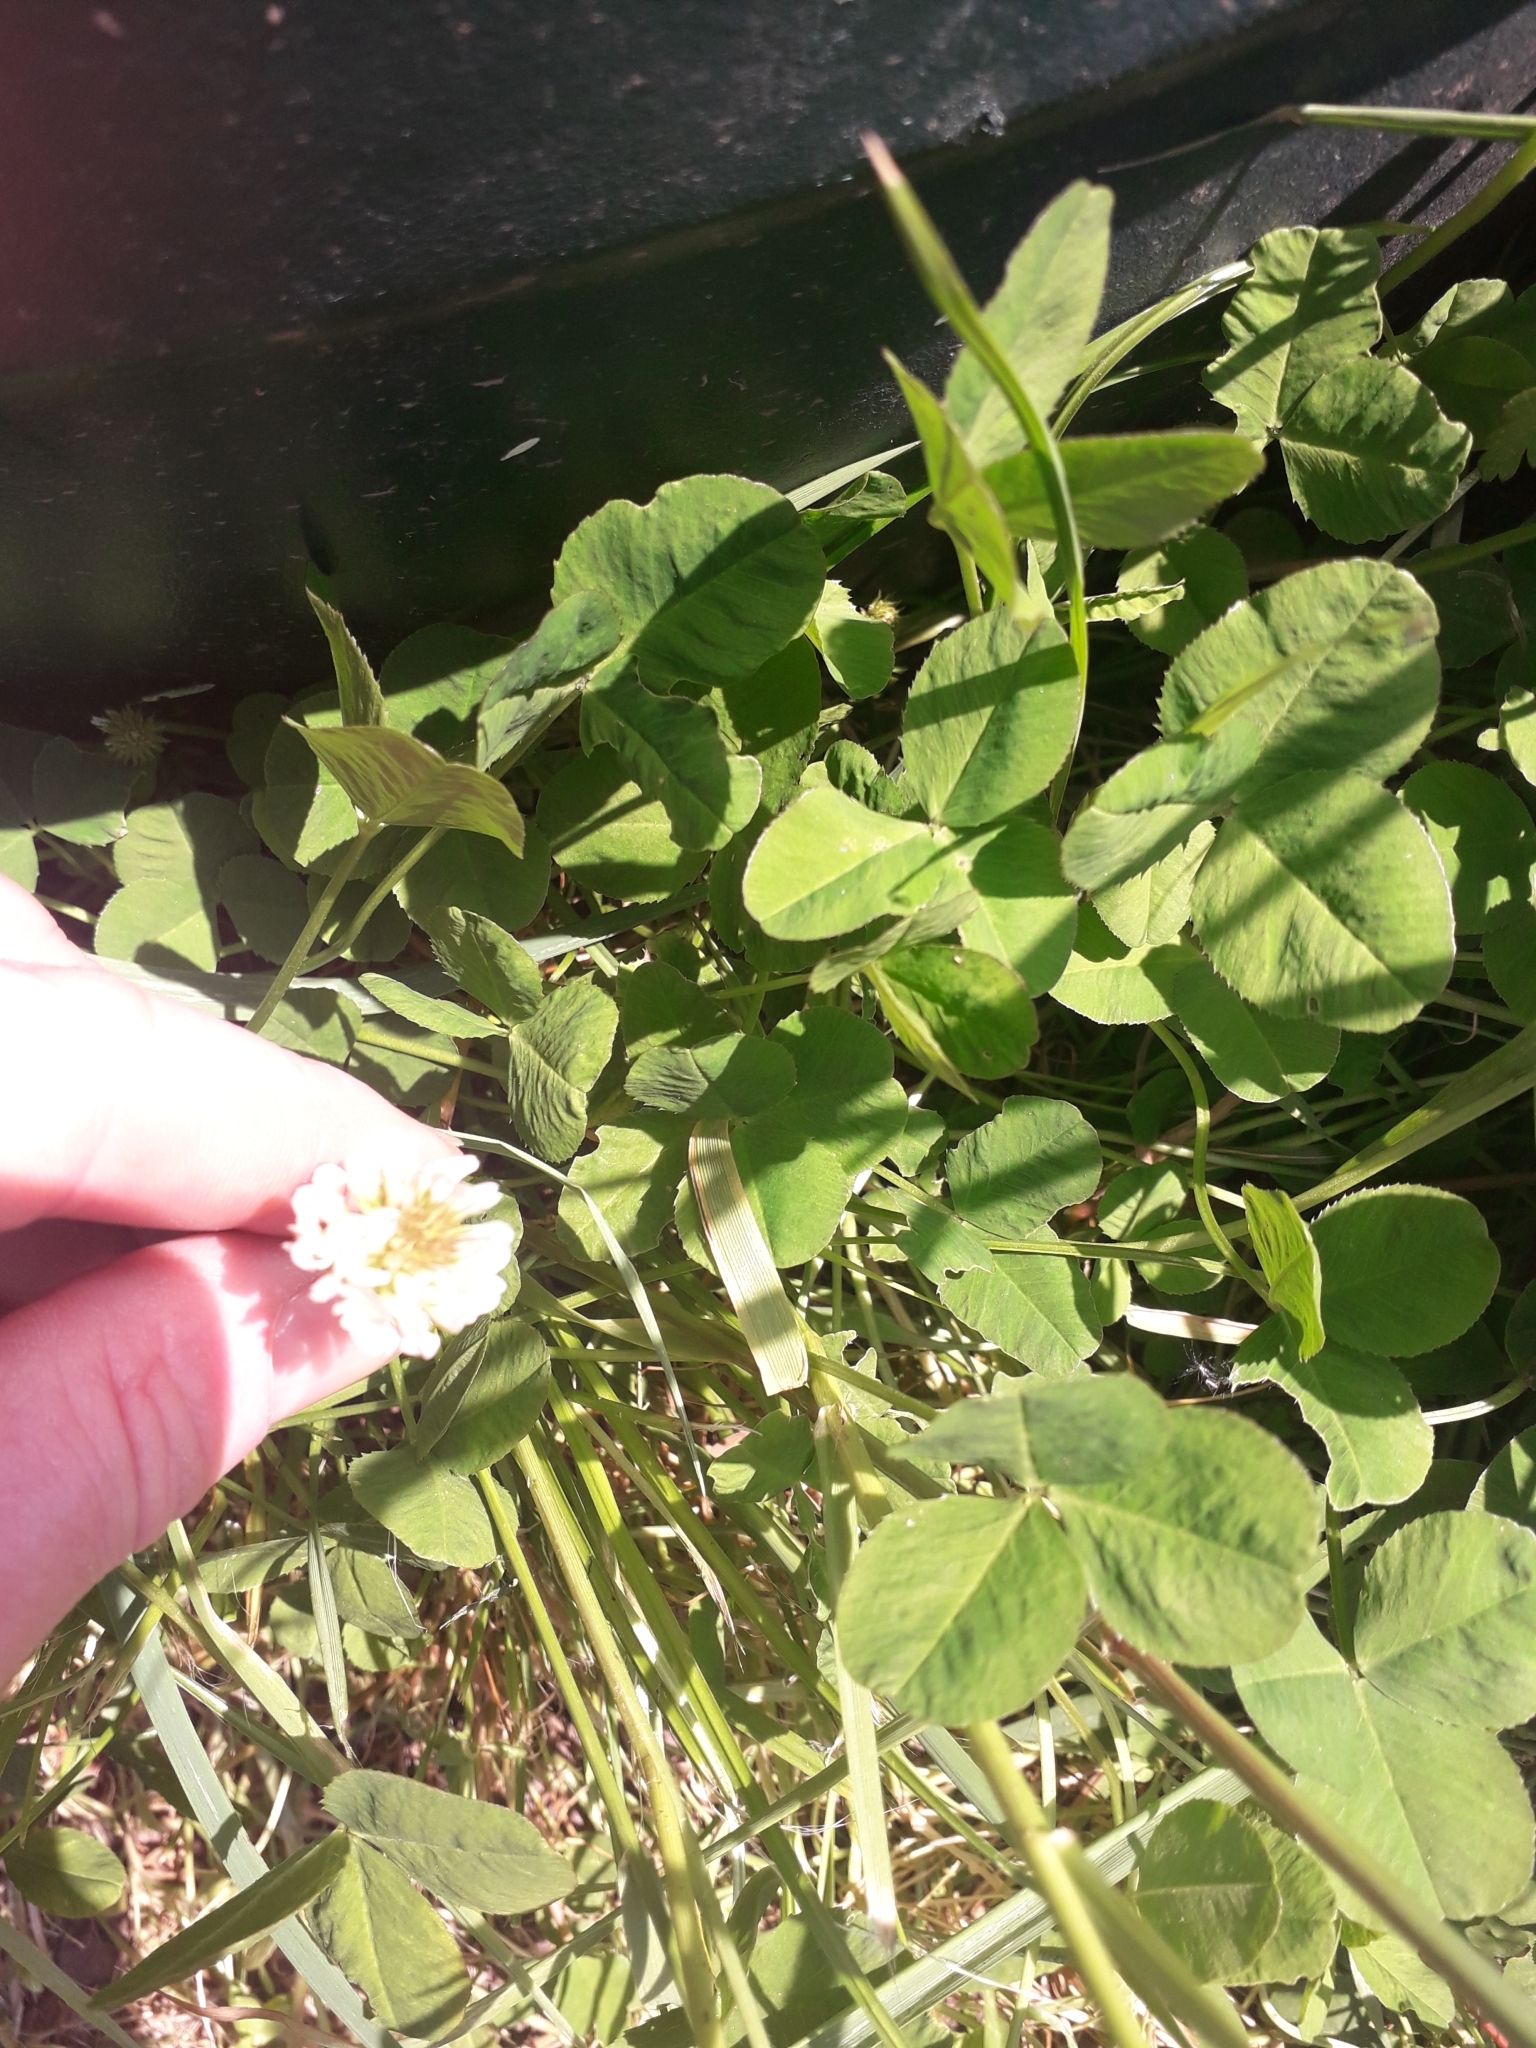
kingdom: Plantae
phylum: Tracheophyta
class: Magnoliopsida
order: Fabales
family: Fabaceae
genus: Trifolium
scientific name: Trifolium repens
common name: White clover
